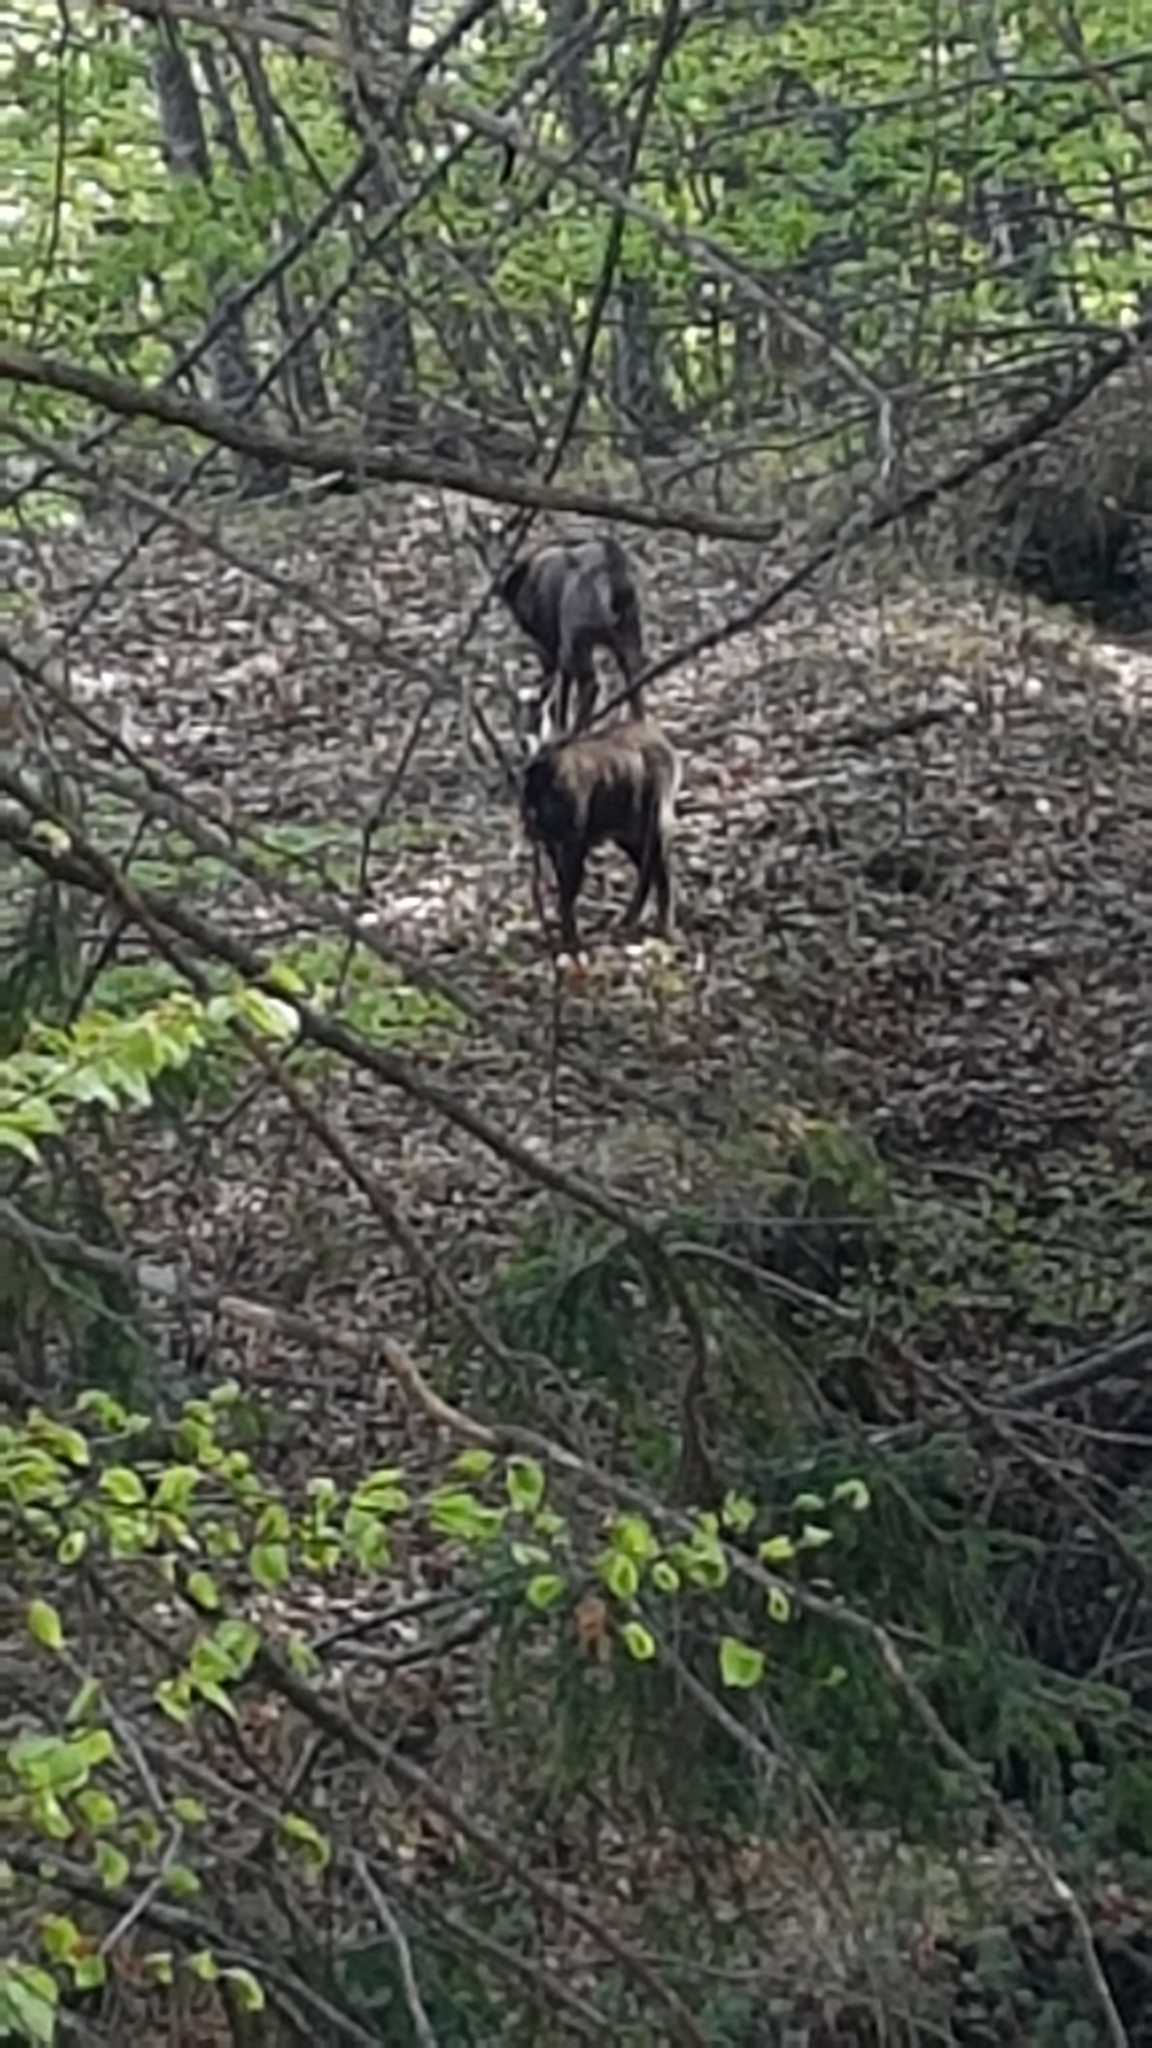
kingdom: Animalia
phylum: Chordata
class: Mammalia
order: Artiodactyla
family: Bovidae
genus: Rupicapra
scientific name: Rupicapra rupicapra
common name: Chamois
